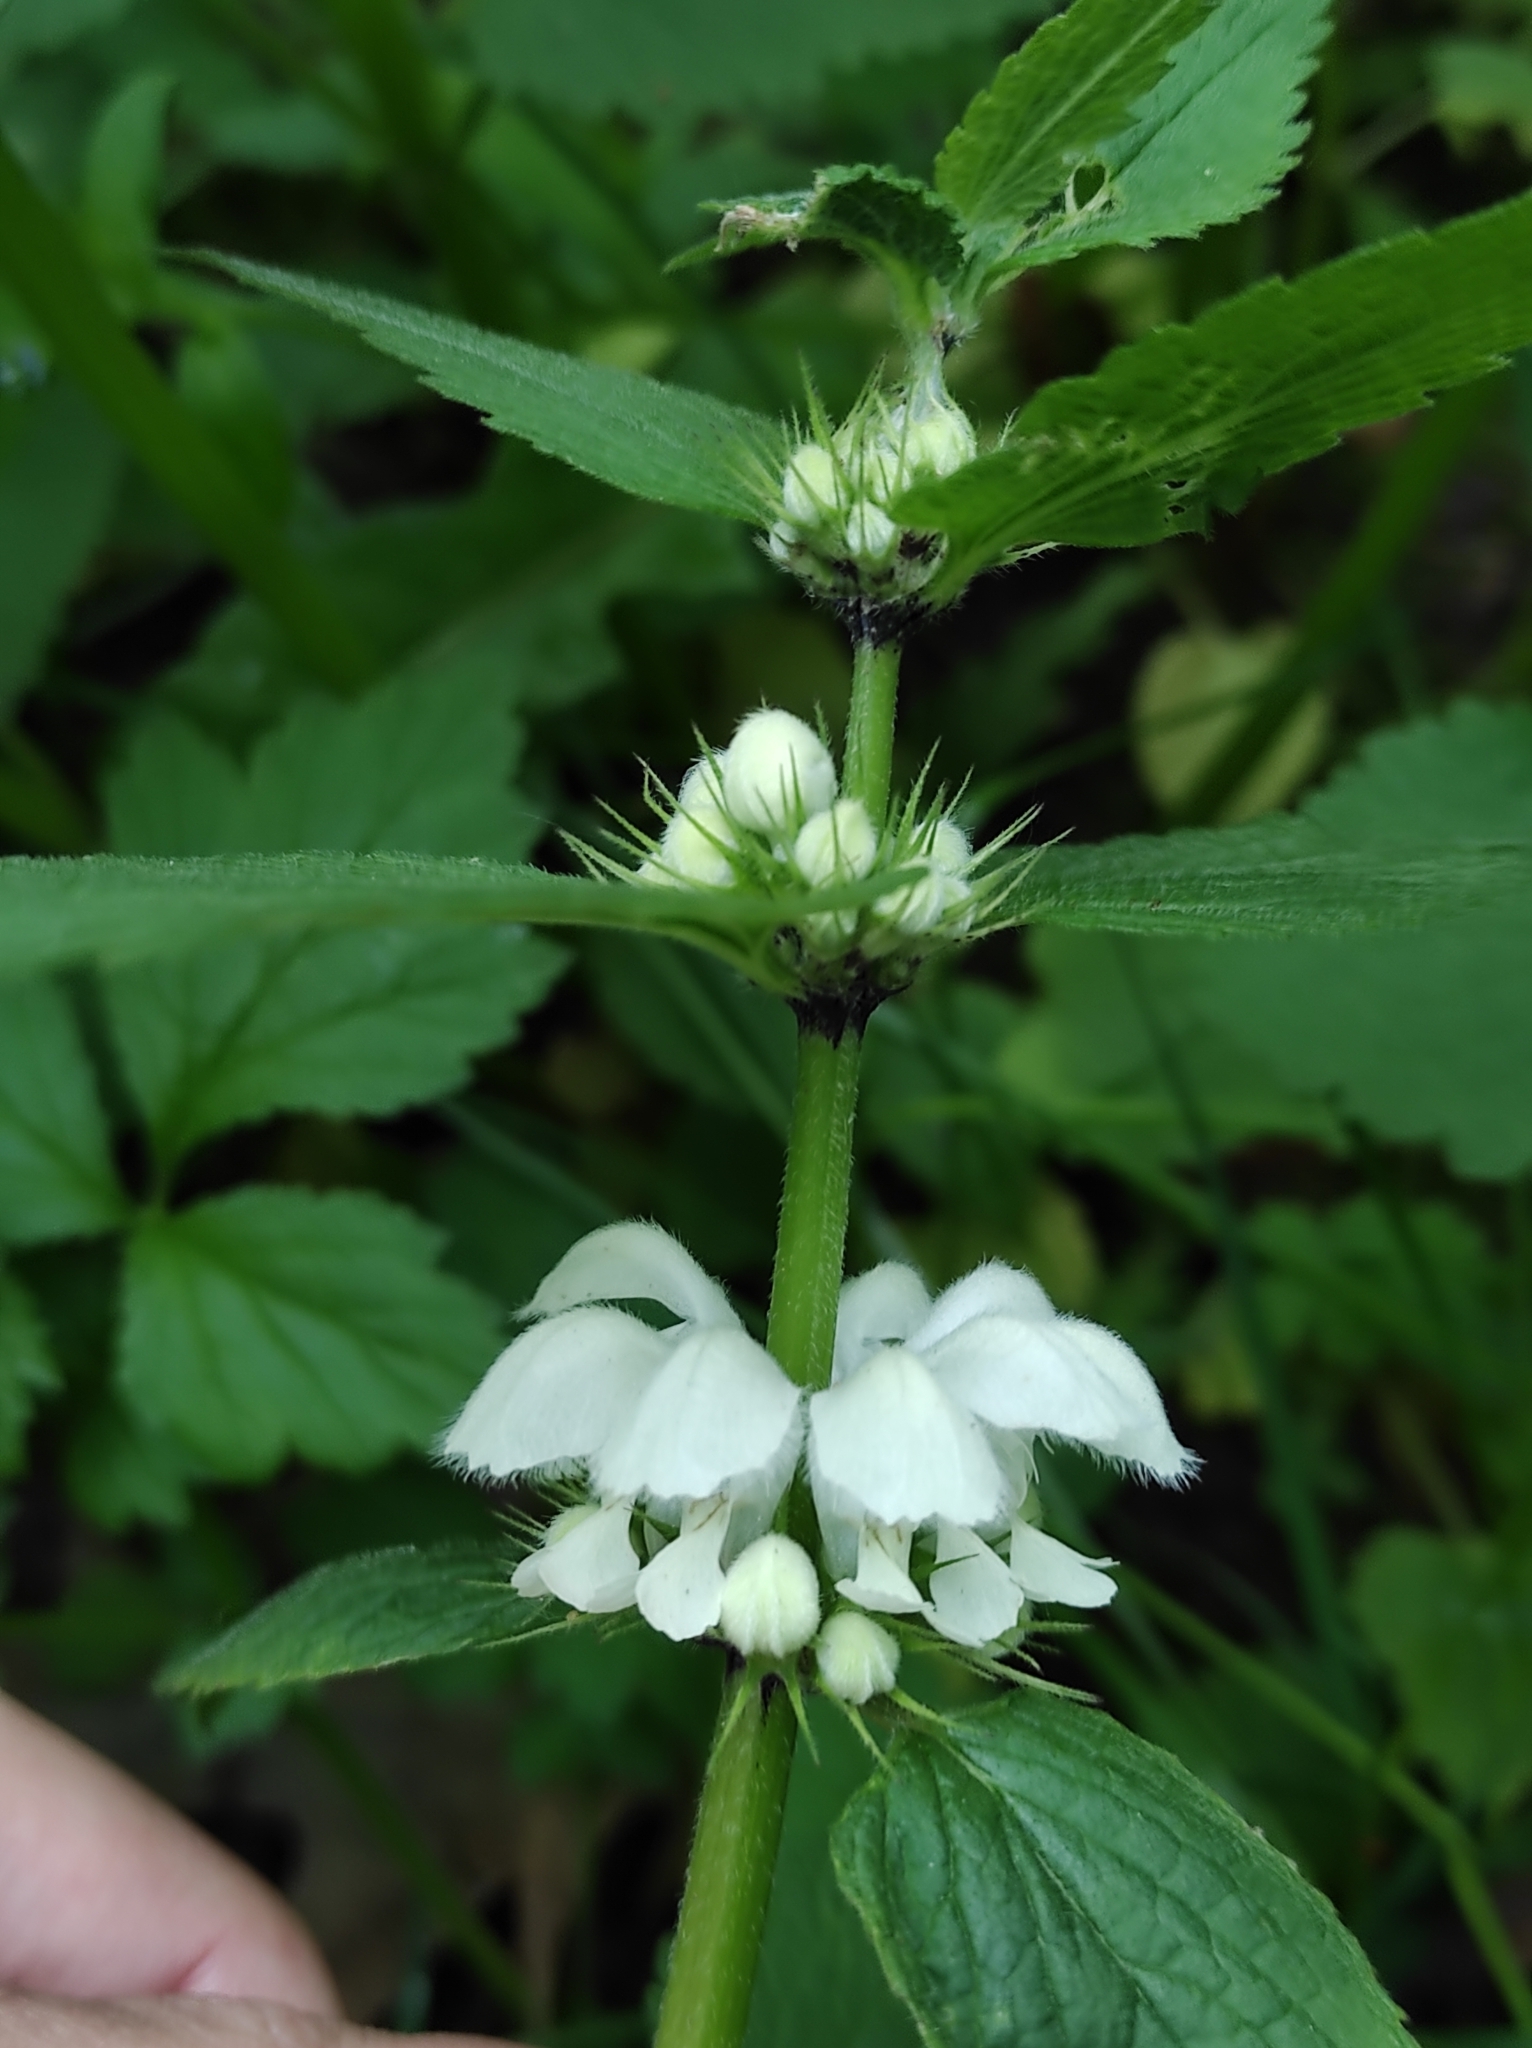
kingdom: Plantae
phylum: Tracheophyta
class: Magnoliopsida
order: Lamiales
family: Lamiaceae
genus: Lamium
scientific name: Lamium album
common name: White dead-nettle
